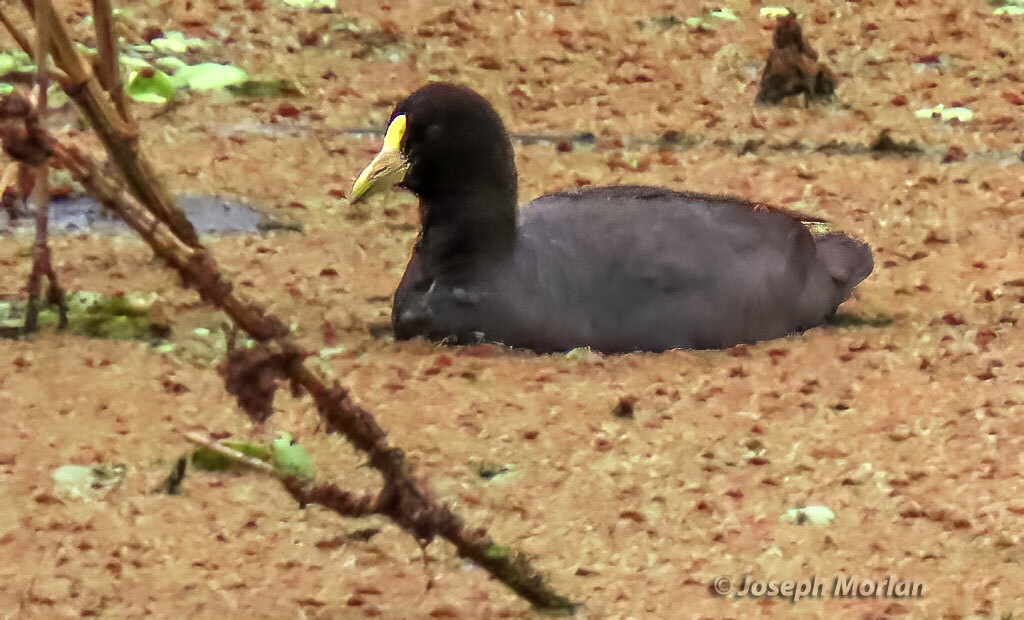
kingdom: Animalia
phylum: Chordata
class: Aves
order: Gruiformes
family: Rallidae
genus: Fulica
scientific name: Fulica leucoptera
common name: White-winged coot
